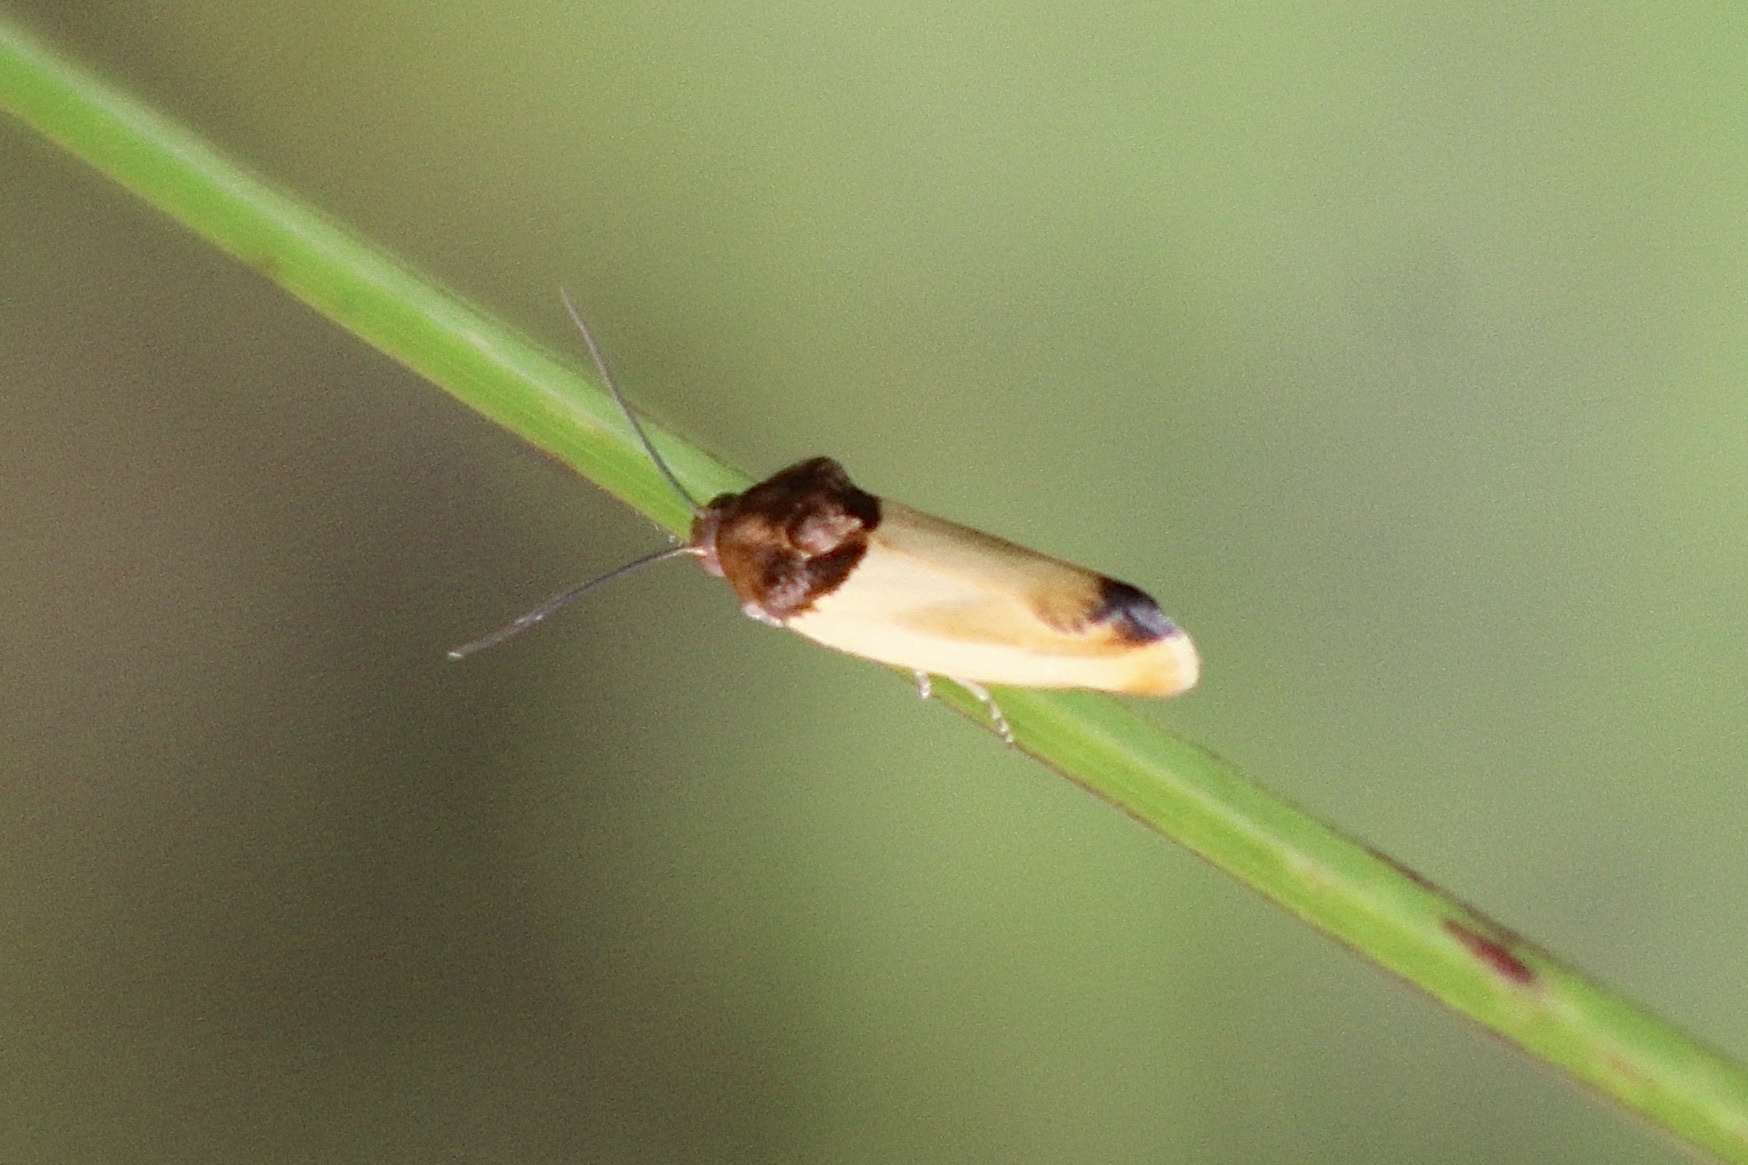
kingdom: Animalia
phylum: Arthropoda
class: Insecta
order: Lepidoptera
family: Noctuidae
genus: Spragueia
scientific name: Spragueia apicalis
